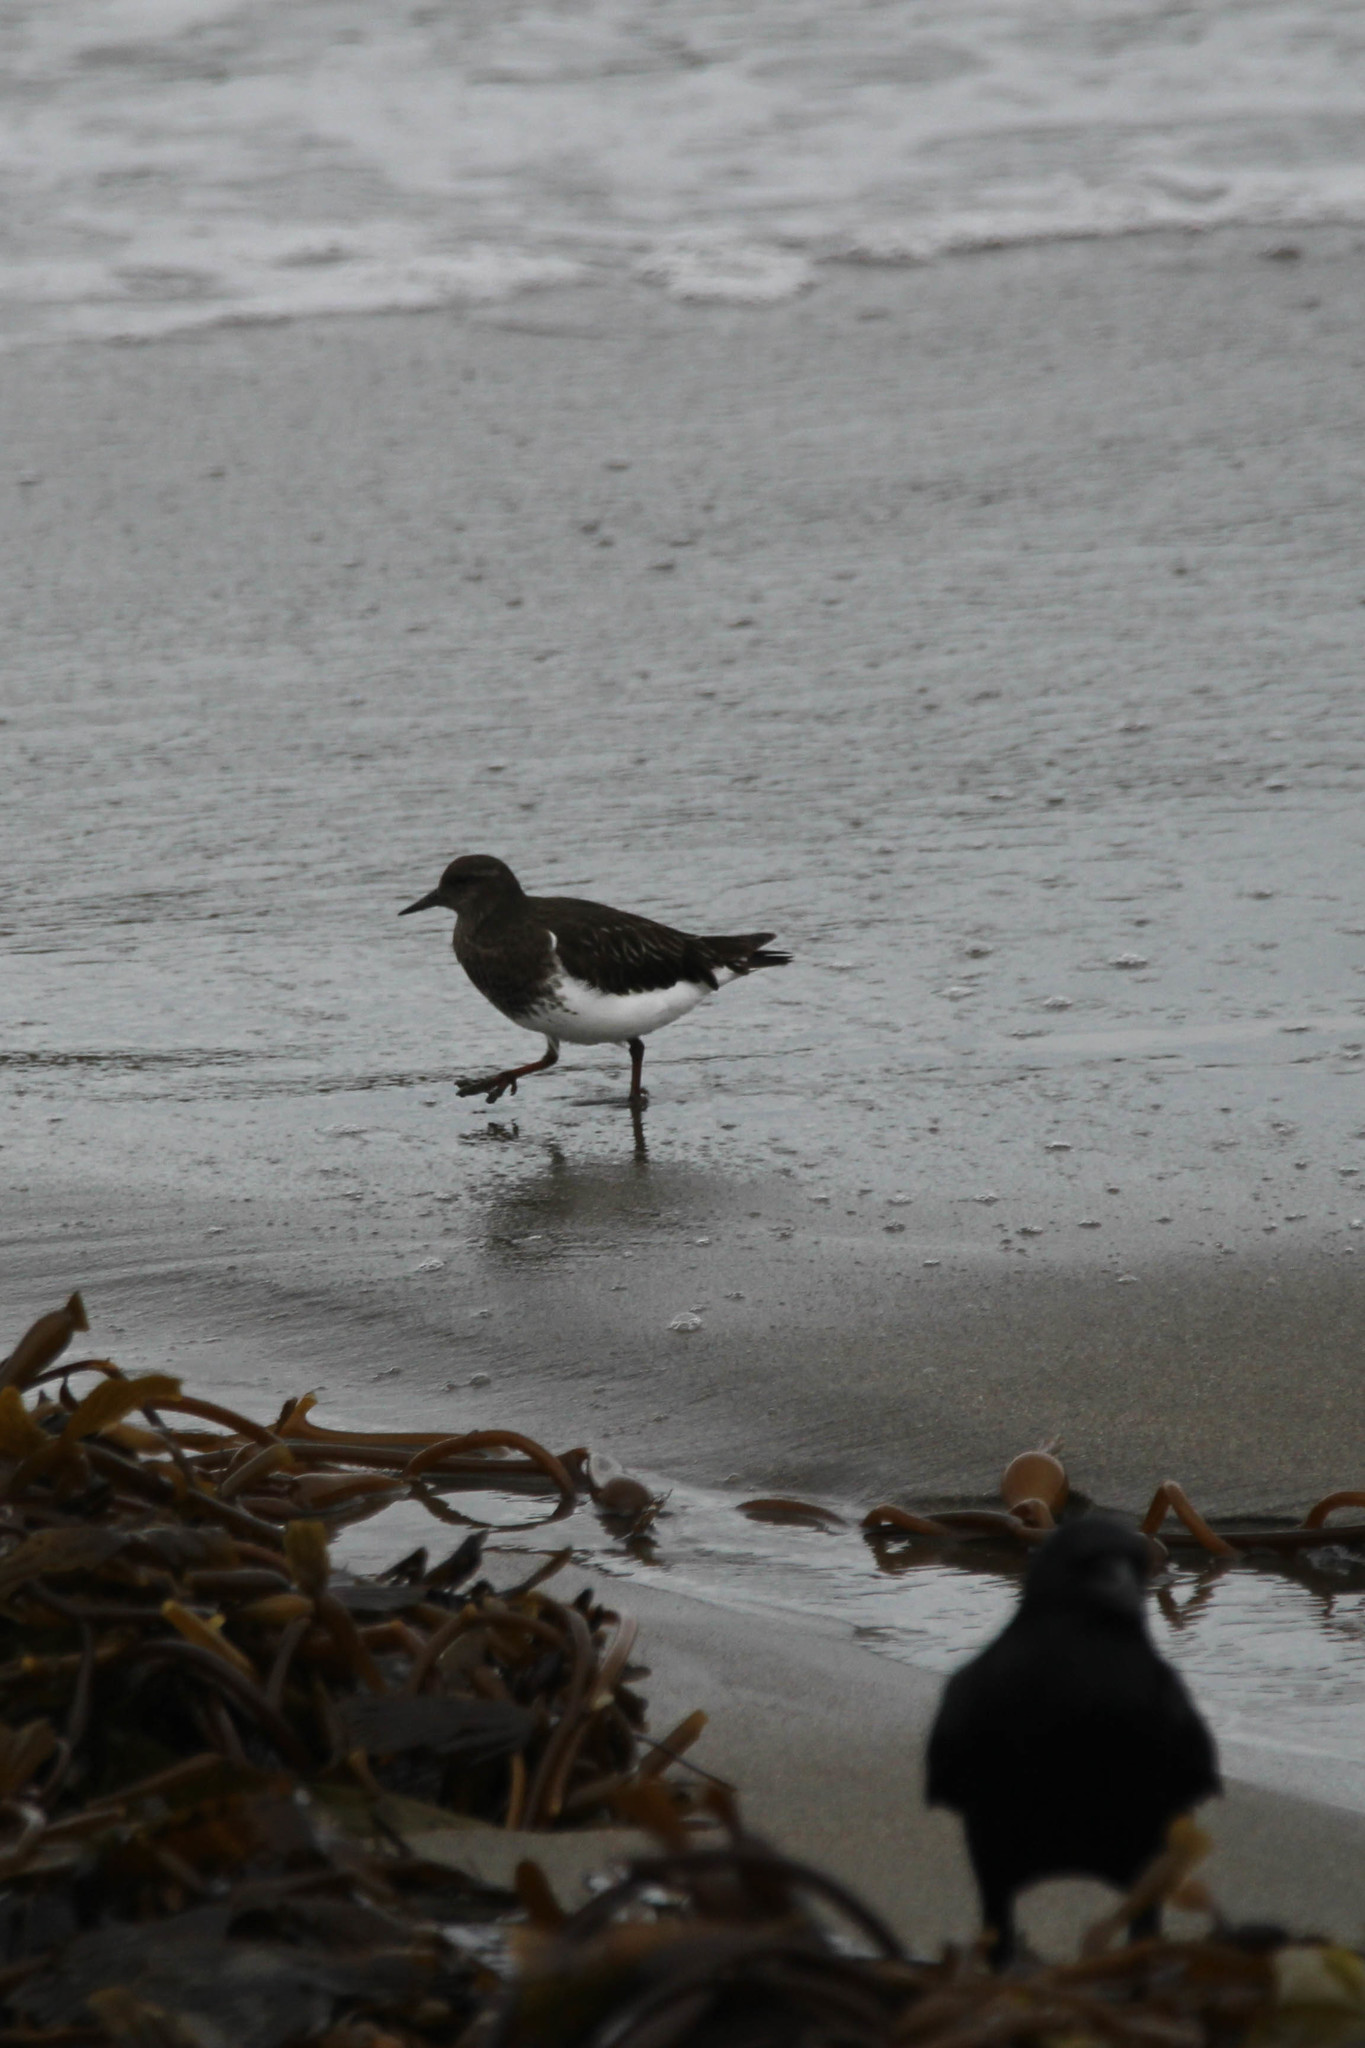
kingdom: Animalia
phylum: Chordata
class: Aves
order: Charadriiformes
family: Scolopacidae
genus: Arenaria
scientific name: Arenaria melanocephala
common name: Black turnstone
